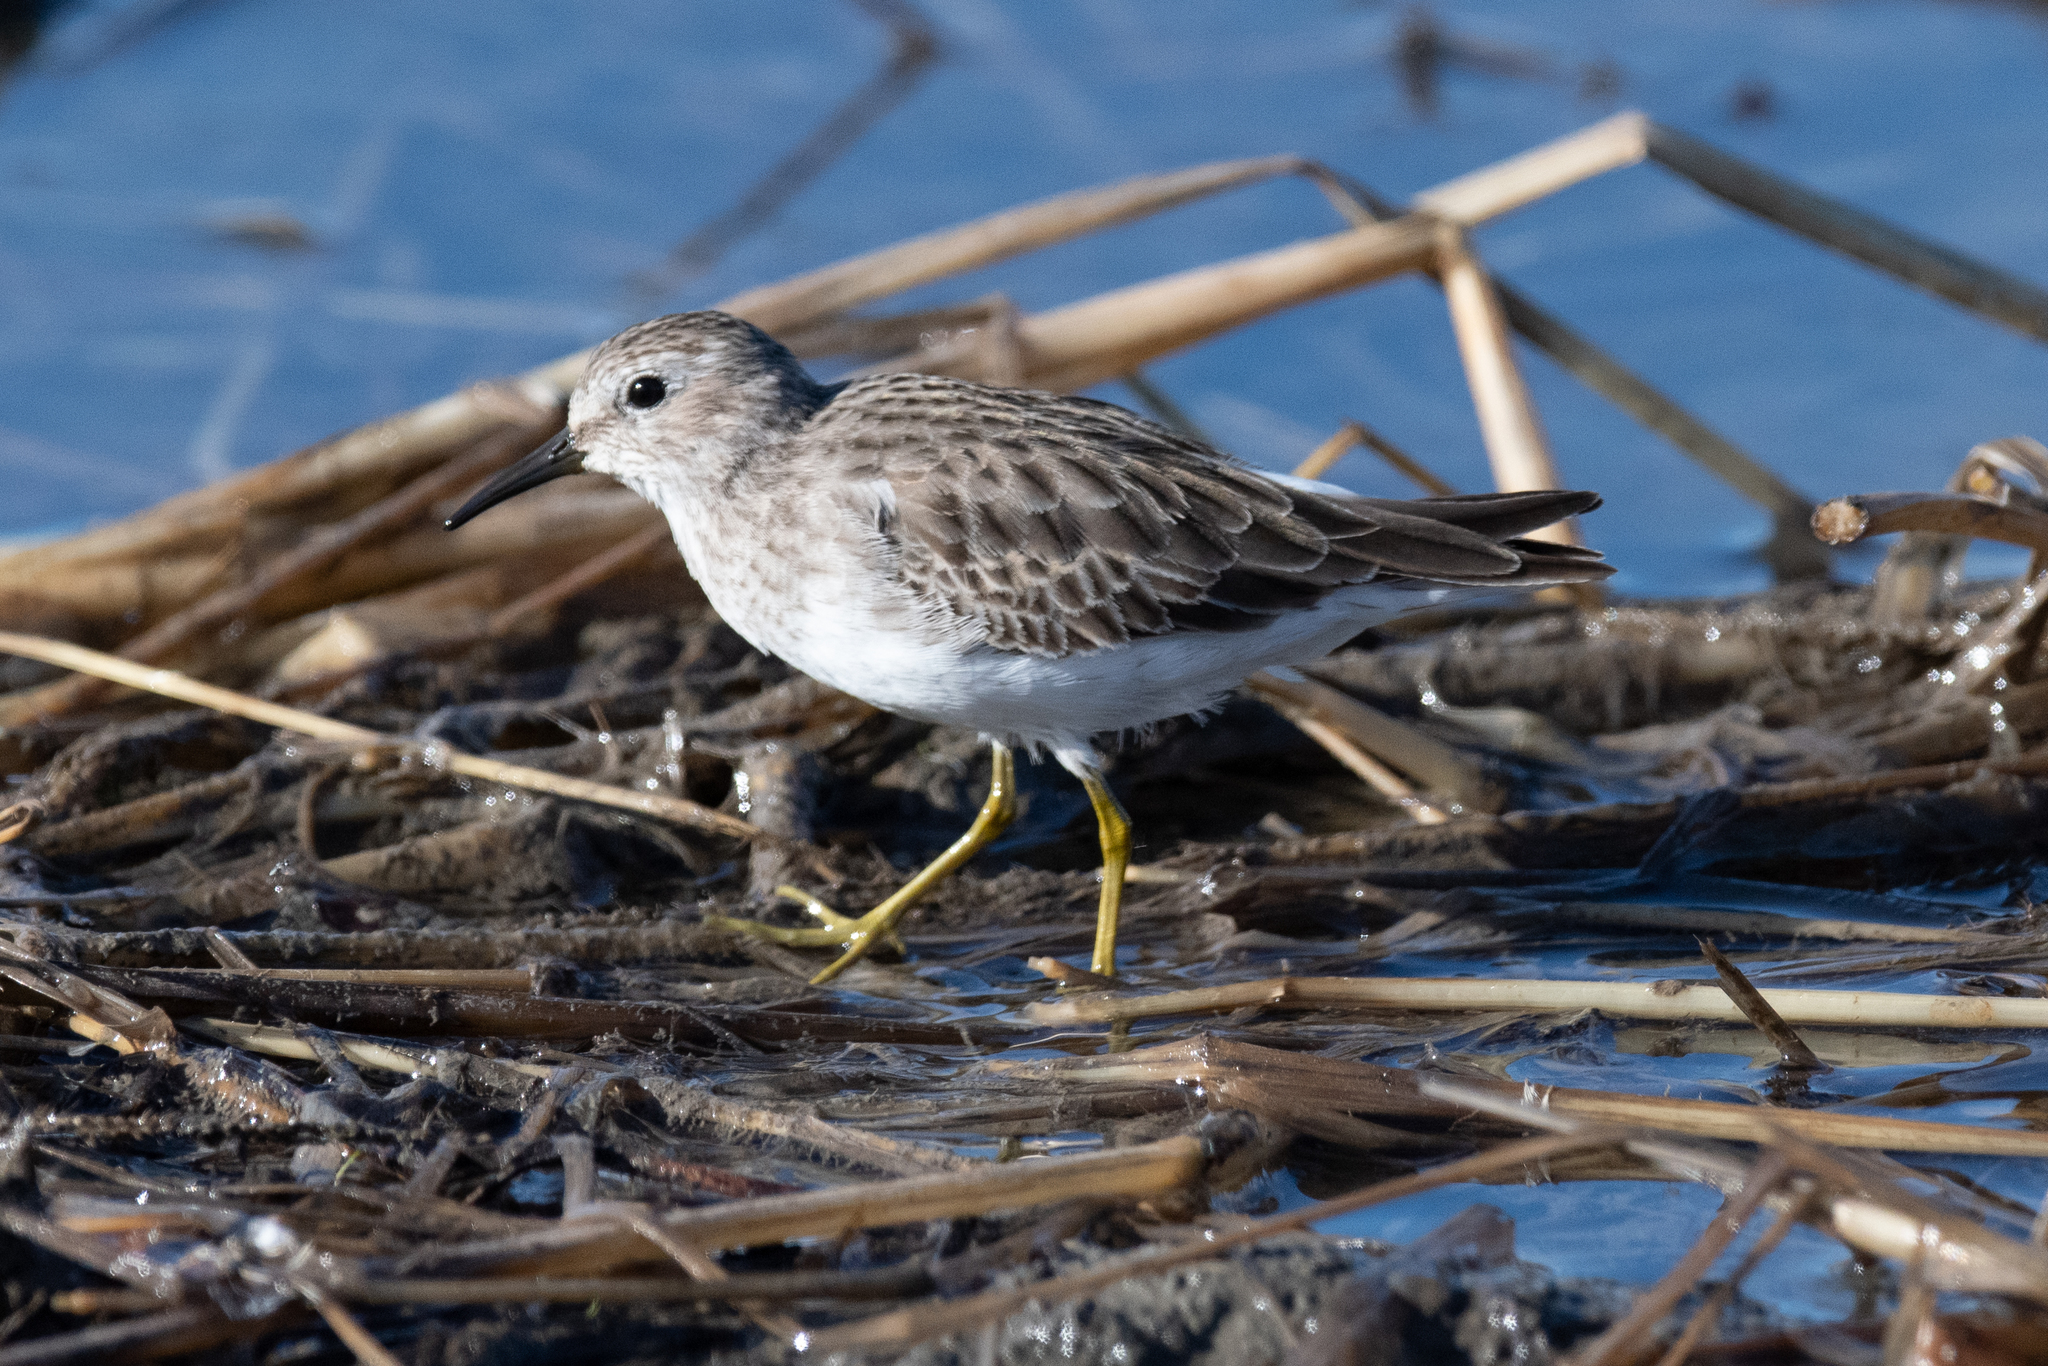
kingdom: Animalia
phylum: Chordata
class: Aves
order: Charadriiformes
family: Scolopacidae
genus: Calidris
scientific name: Calidris minutilla
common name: Least sandpiper
